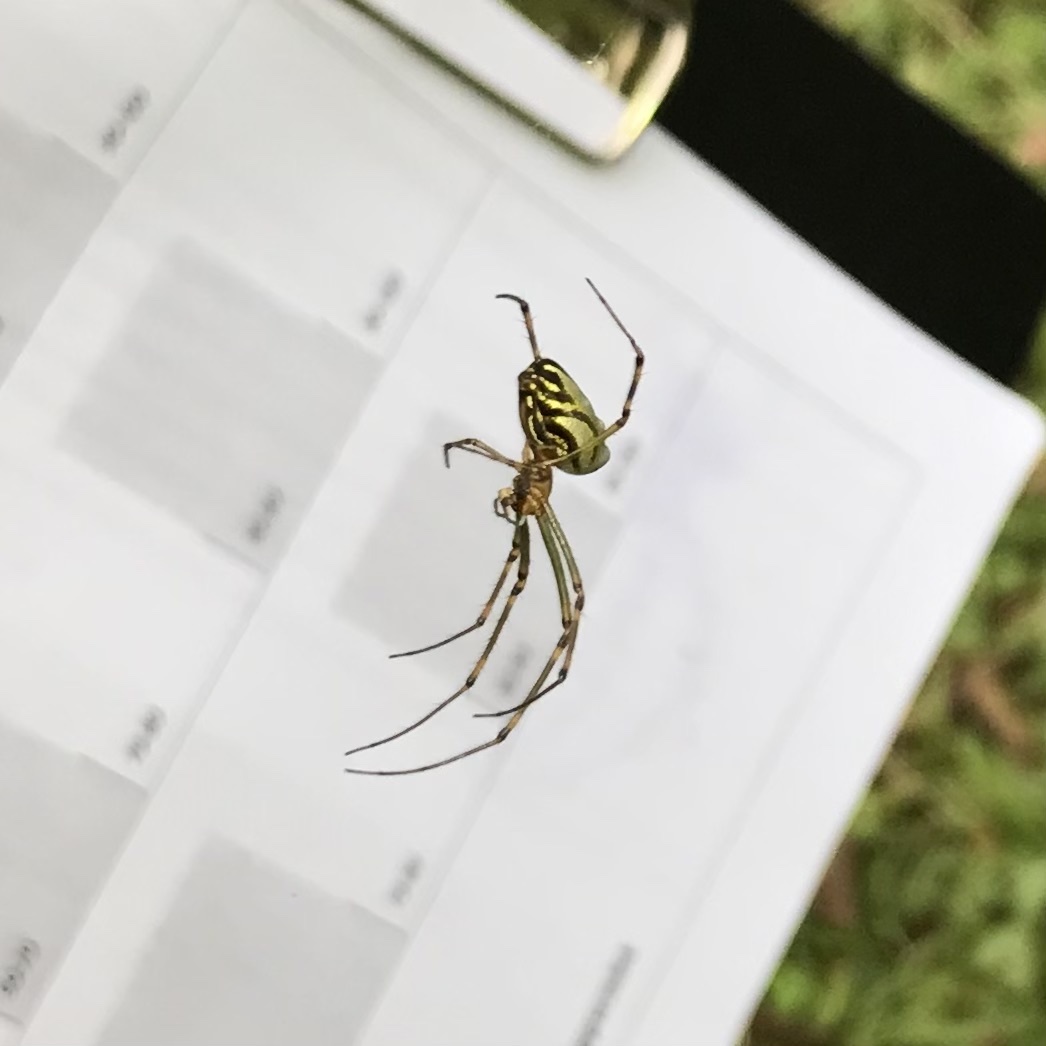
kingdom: Animalia
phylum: Arthropoda
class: Arachnida
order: Araneae
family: Tetragnathidae
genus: Leucauge
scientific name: Leucauge dromedaria
